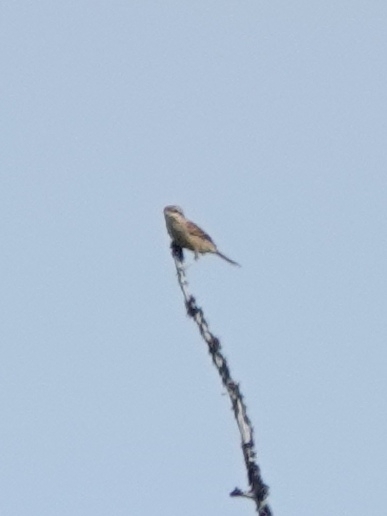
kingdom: Animalia
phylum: Chordata
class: Aves
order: Passeriformes
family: Laniidae
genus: Lanius
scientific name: Lanius cristatus
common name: Brown shrike
